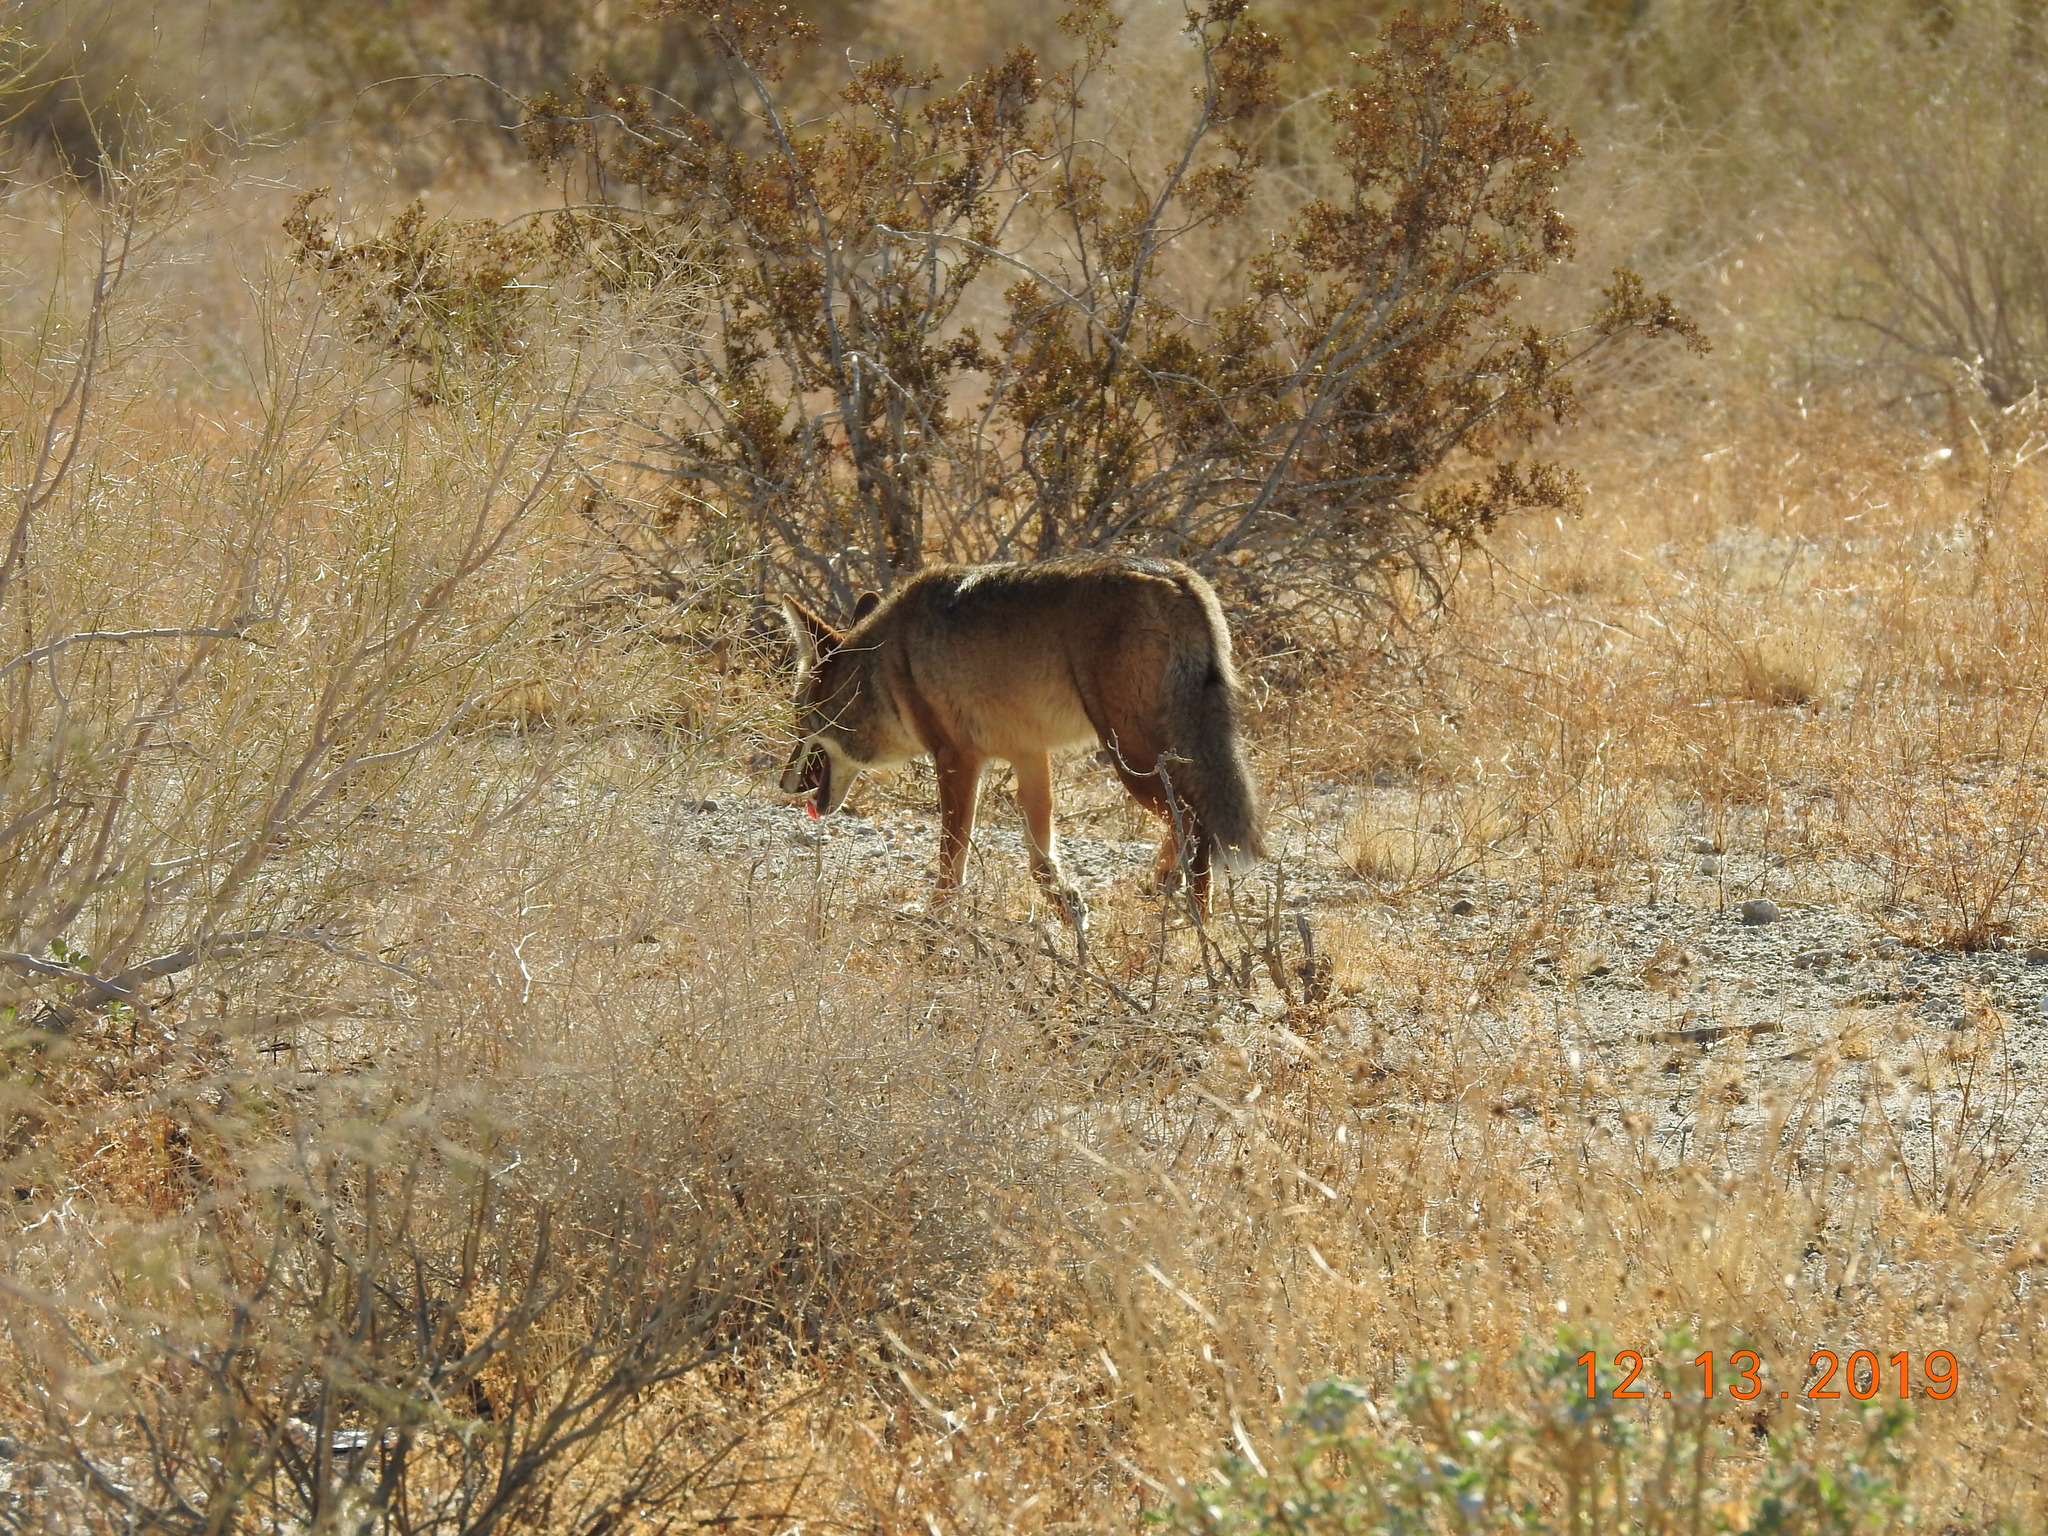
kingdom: Animalia
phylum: Chordata
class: Mammalia
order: Carnivora
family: Canidae
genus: Canis
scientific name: Canis latrans
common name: Coyote
